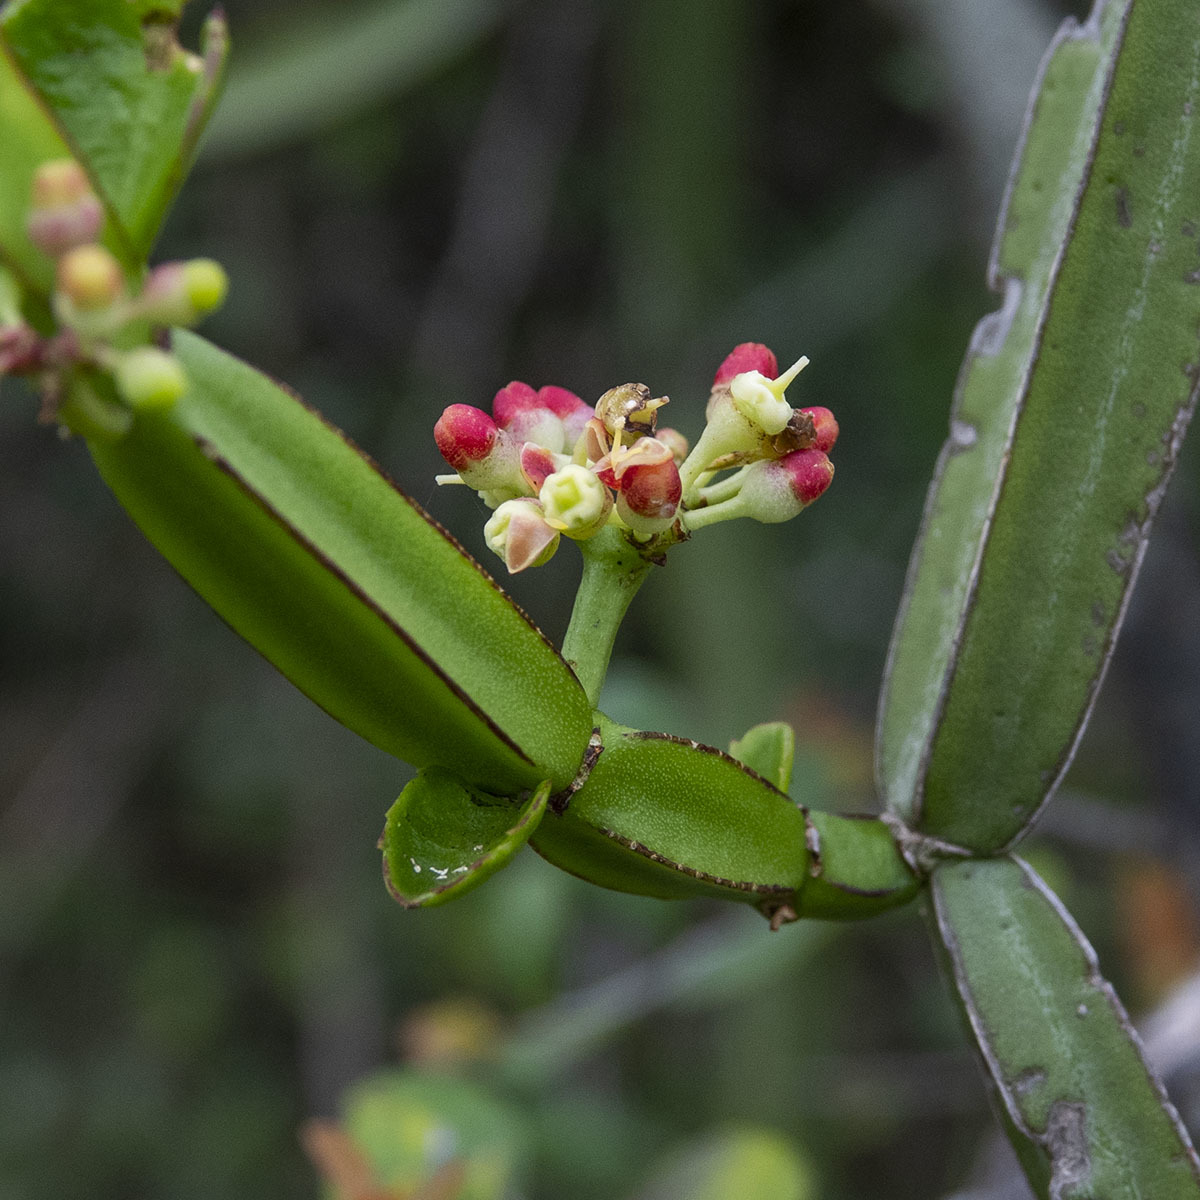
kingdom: Plantae
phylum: Tracheophyta
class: Magnoliopsida
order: Vitales
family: Vitaceae
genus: Cissus
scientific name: Cissus quadrangularis
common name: Veldt-grape
